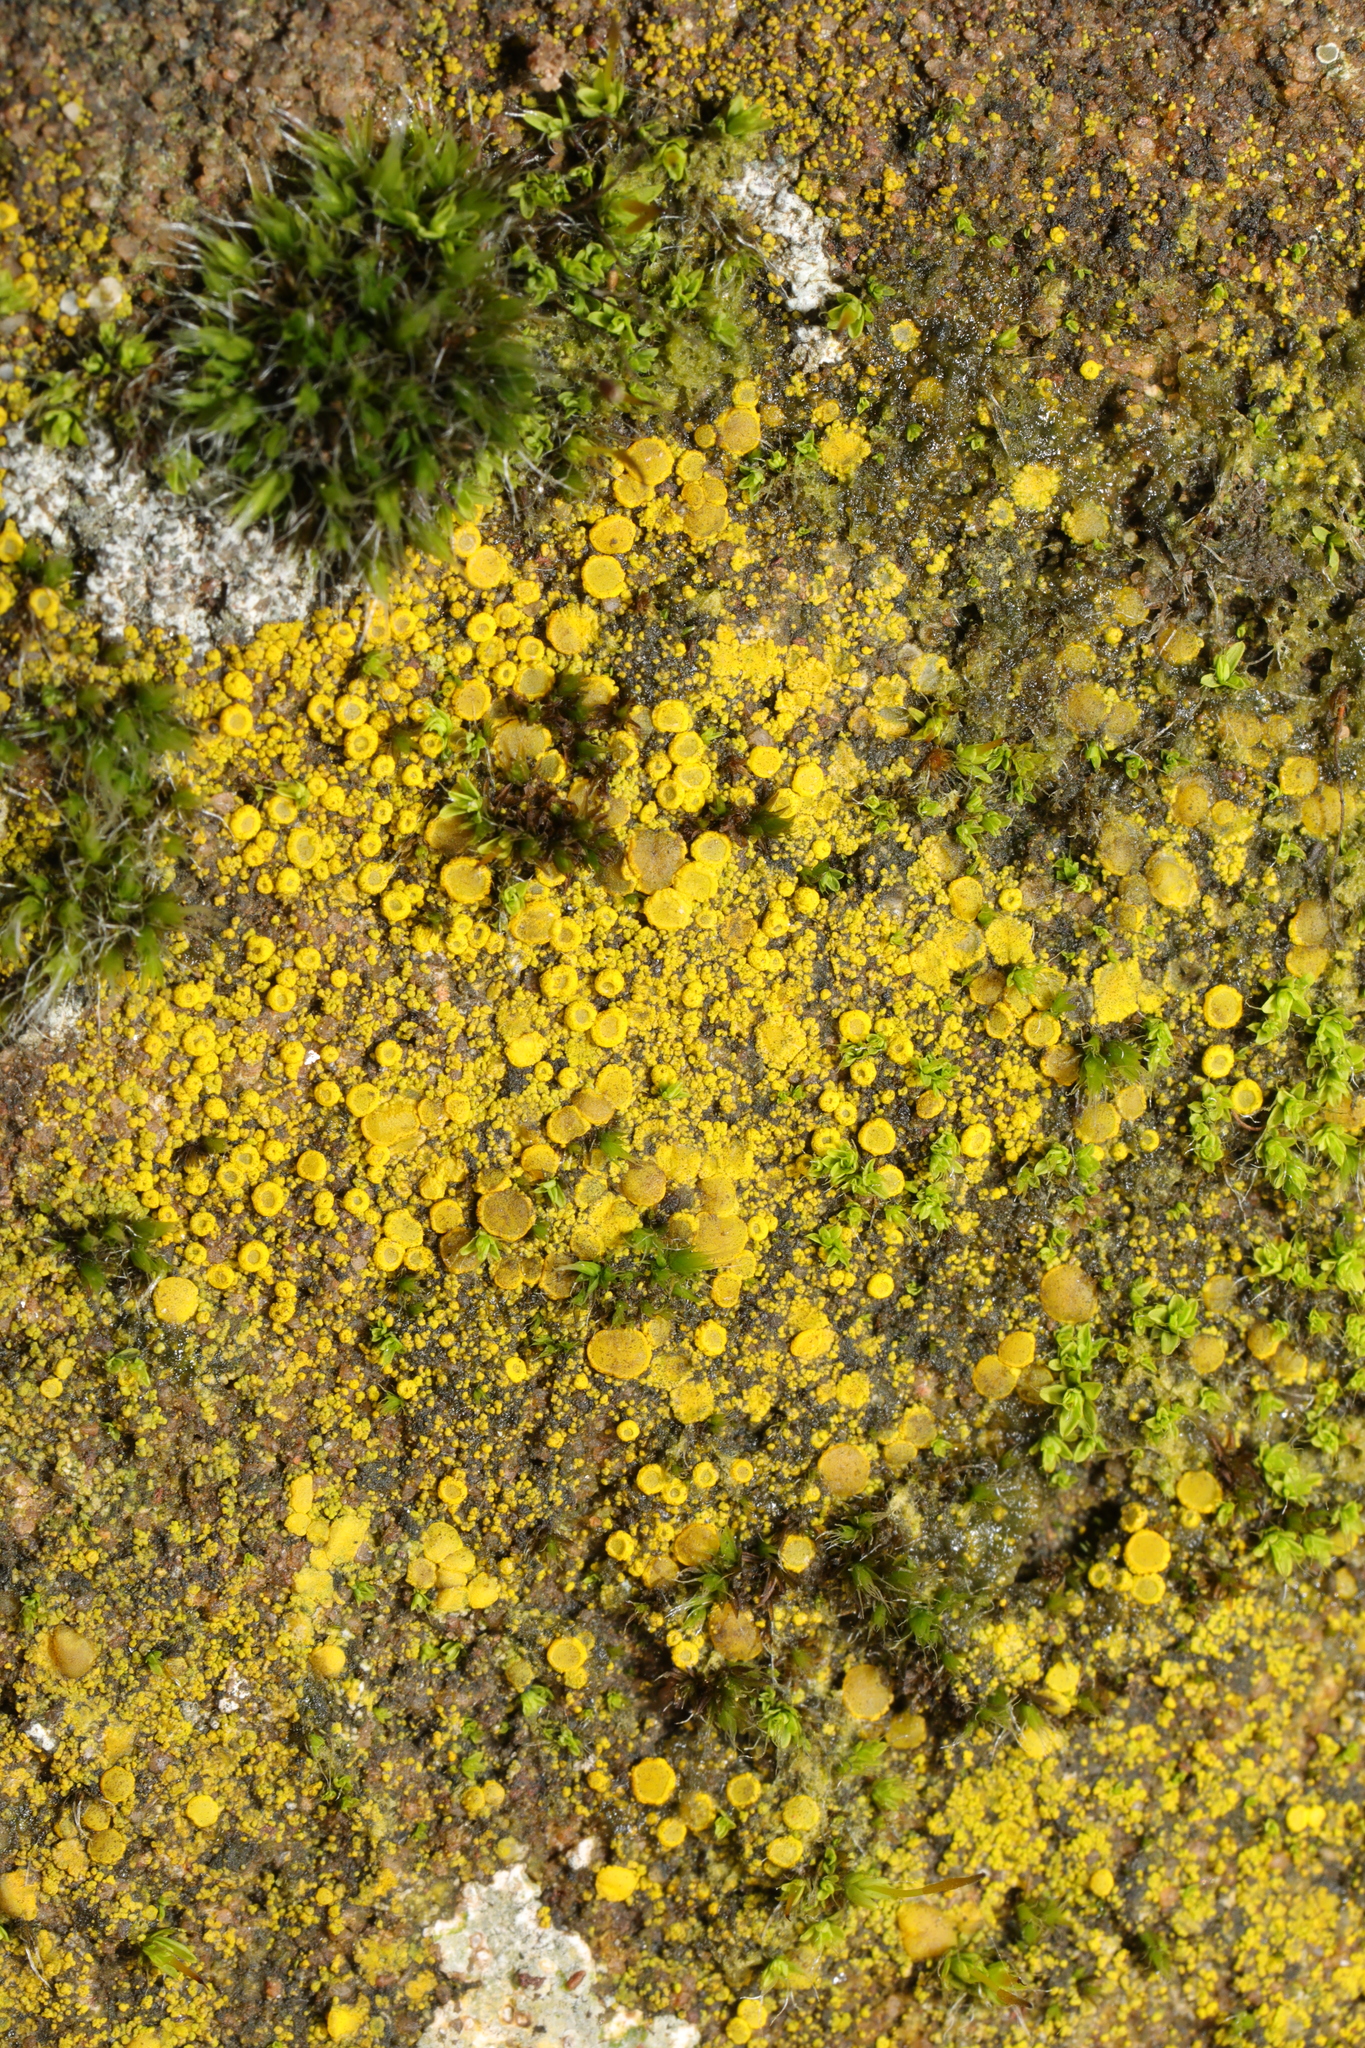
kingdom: Fungi
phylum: Ascomycota
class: Candelariomycetes
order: Candelariales
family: Candelariaceae
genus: Candelariella
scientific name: Candelariella vitellina
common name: Common goldspeck
